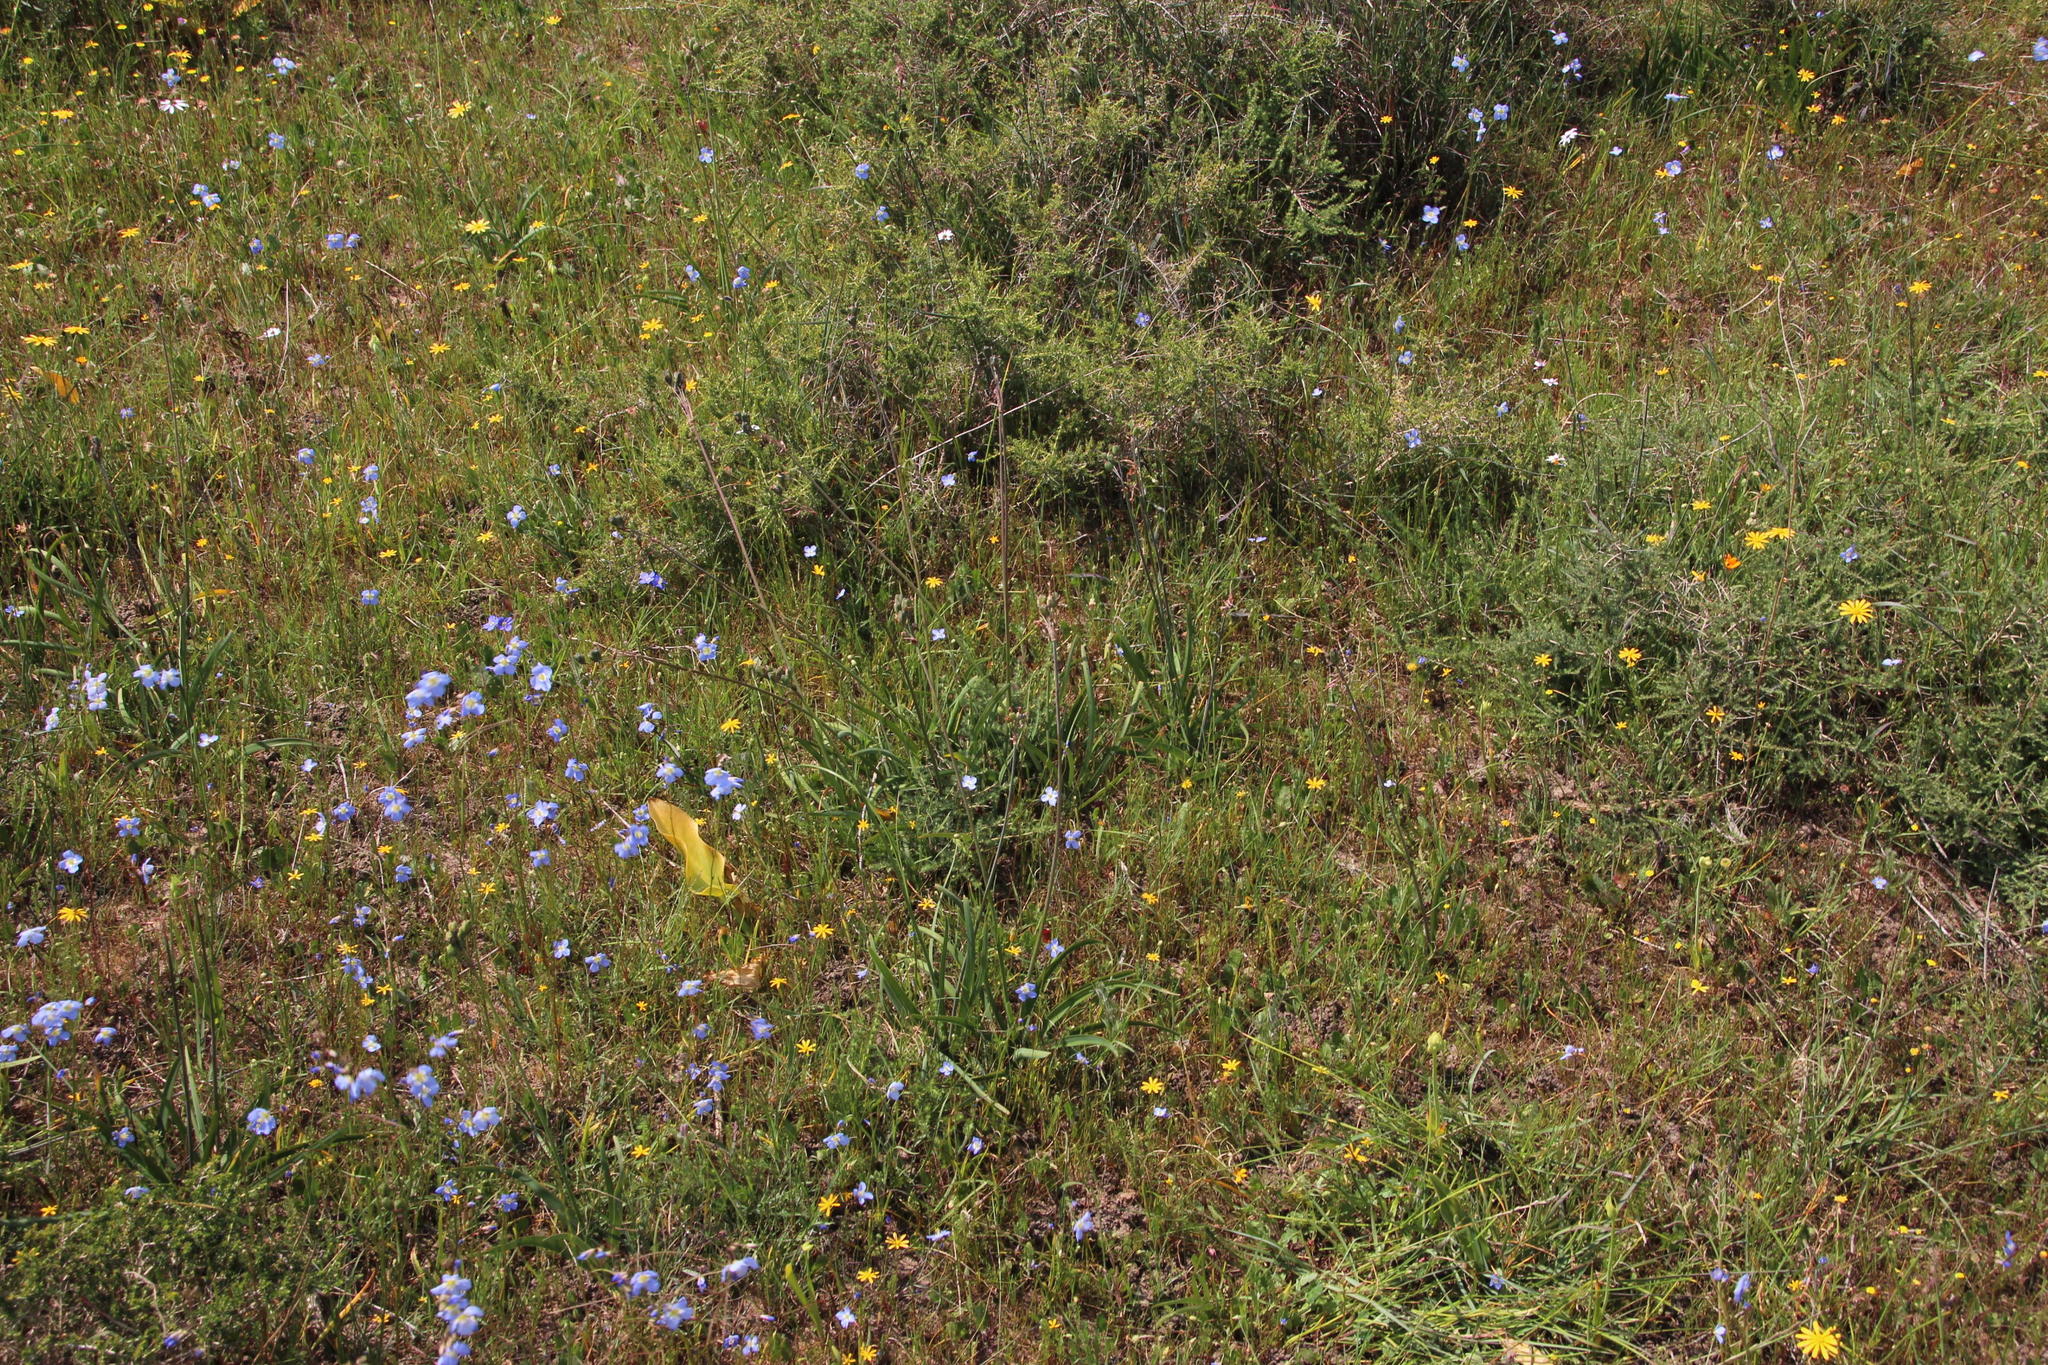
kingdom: Plantae
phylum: Tracheophyta
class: Liliopsida
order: Asparagales
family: Amaryllidaceae
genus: Tulbaghia
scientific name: Tulbaghia capensis
